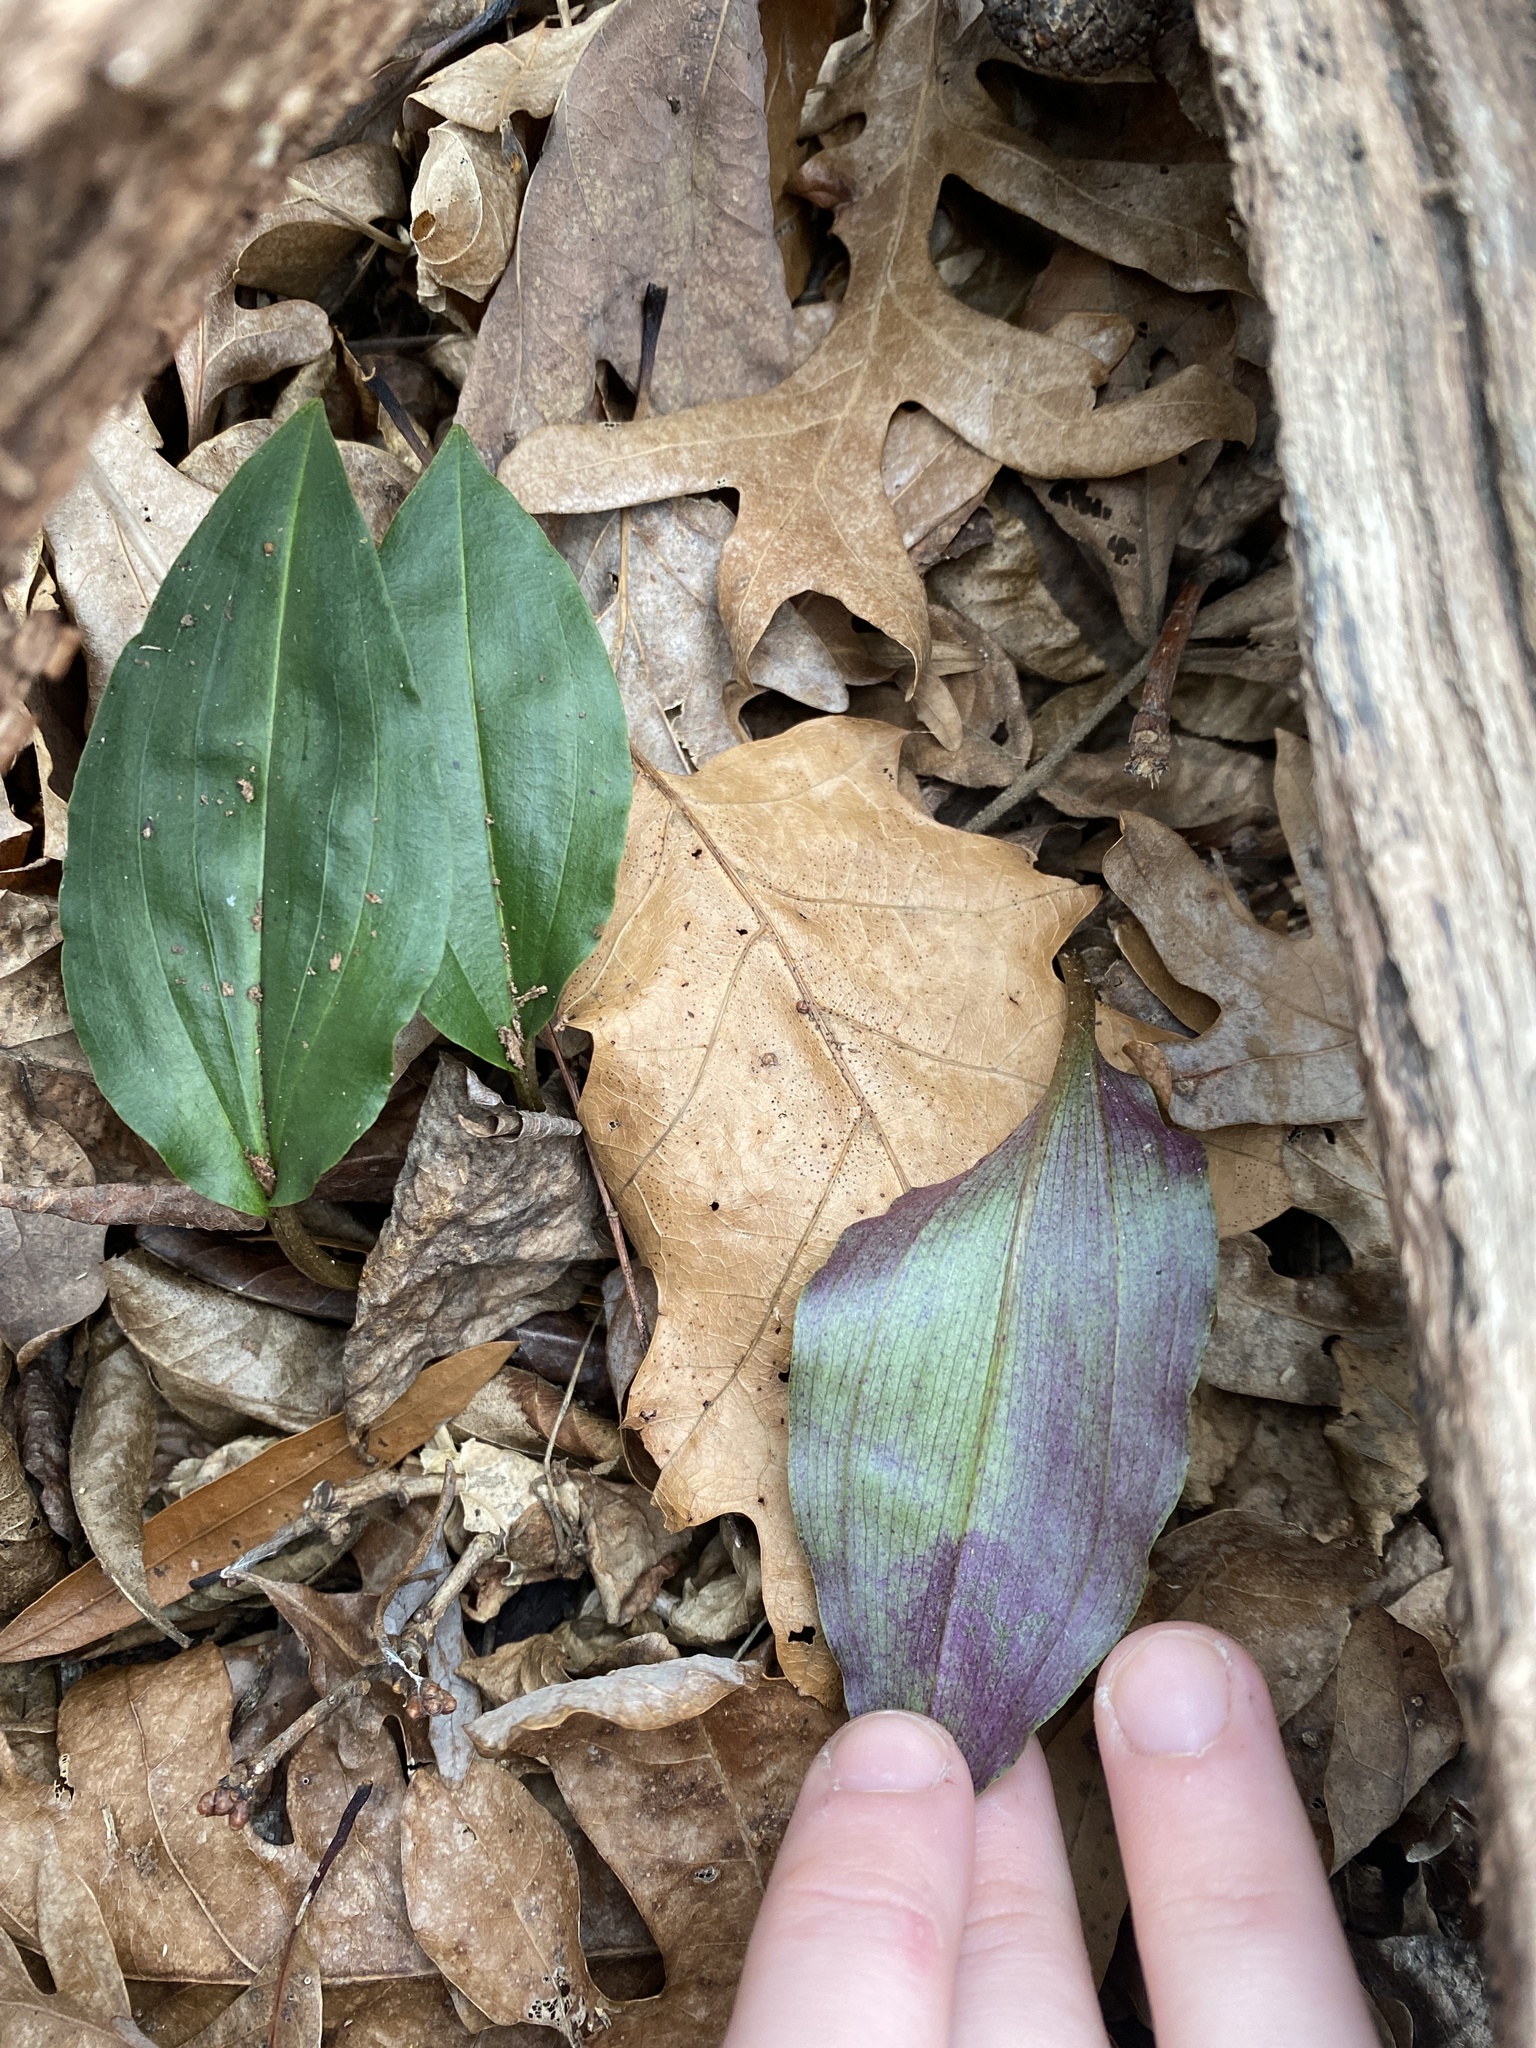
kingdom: Plantae
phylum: Tracheophyta
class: Liliopsida
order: Asparagales
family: Orchidaceae
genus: Tipularia
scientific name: Tipularia discolor
